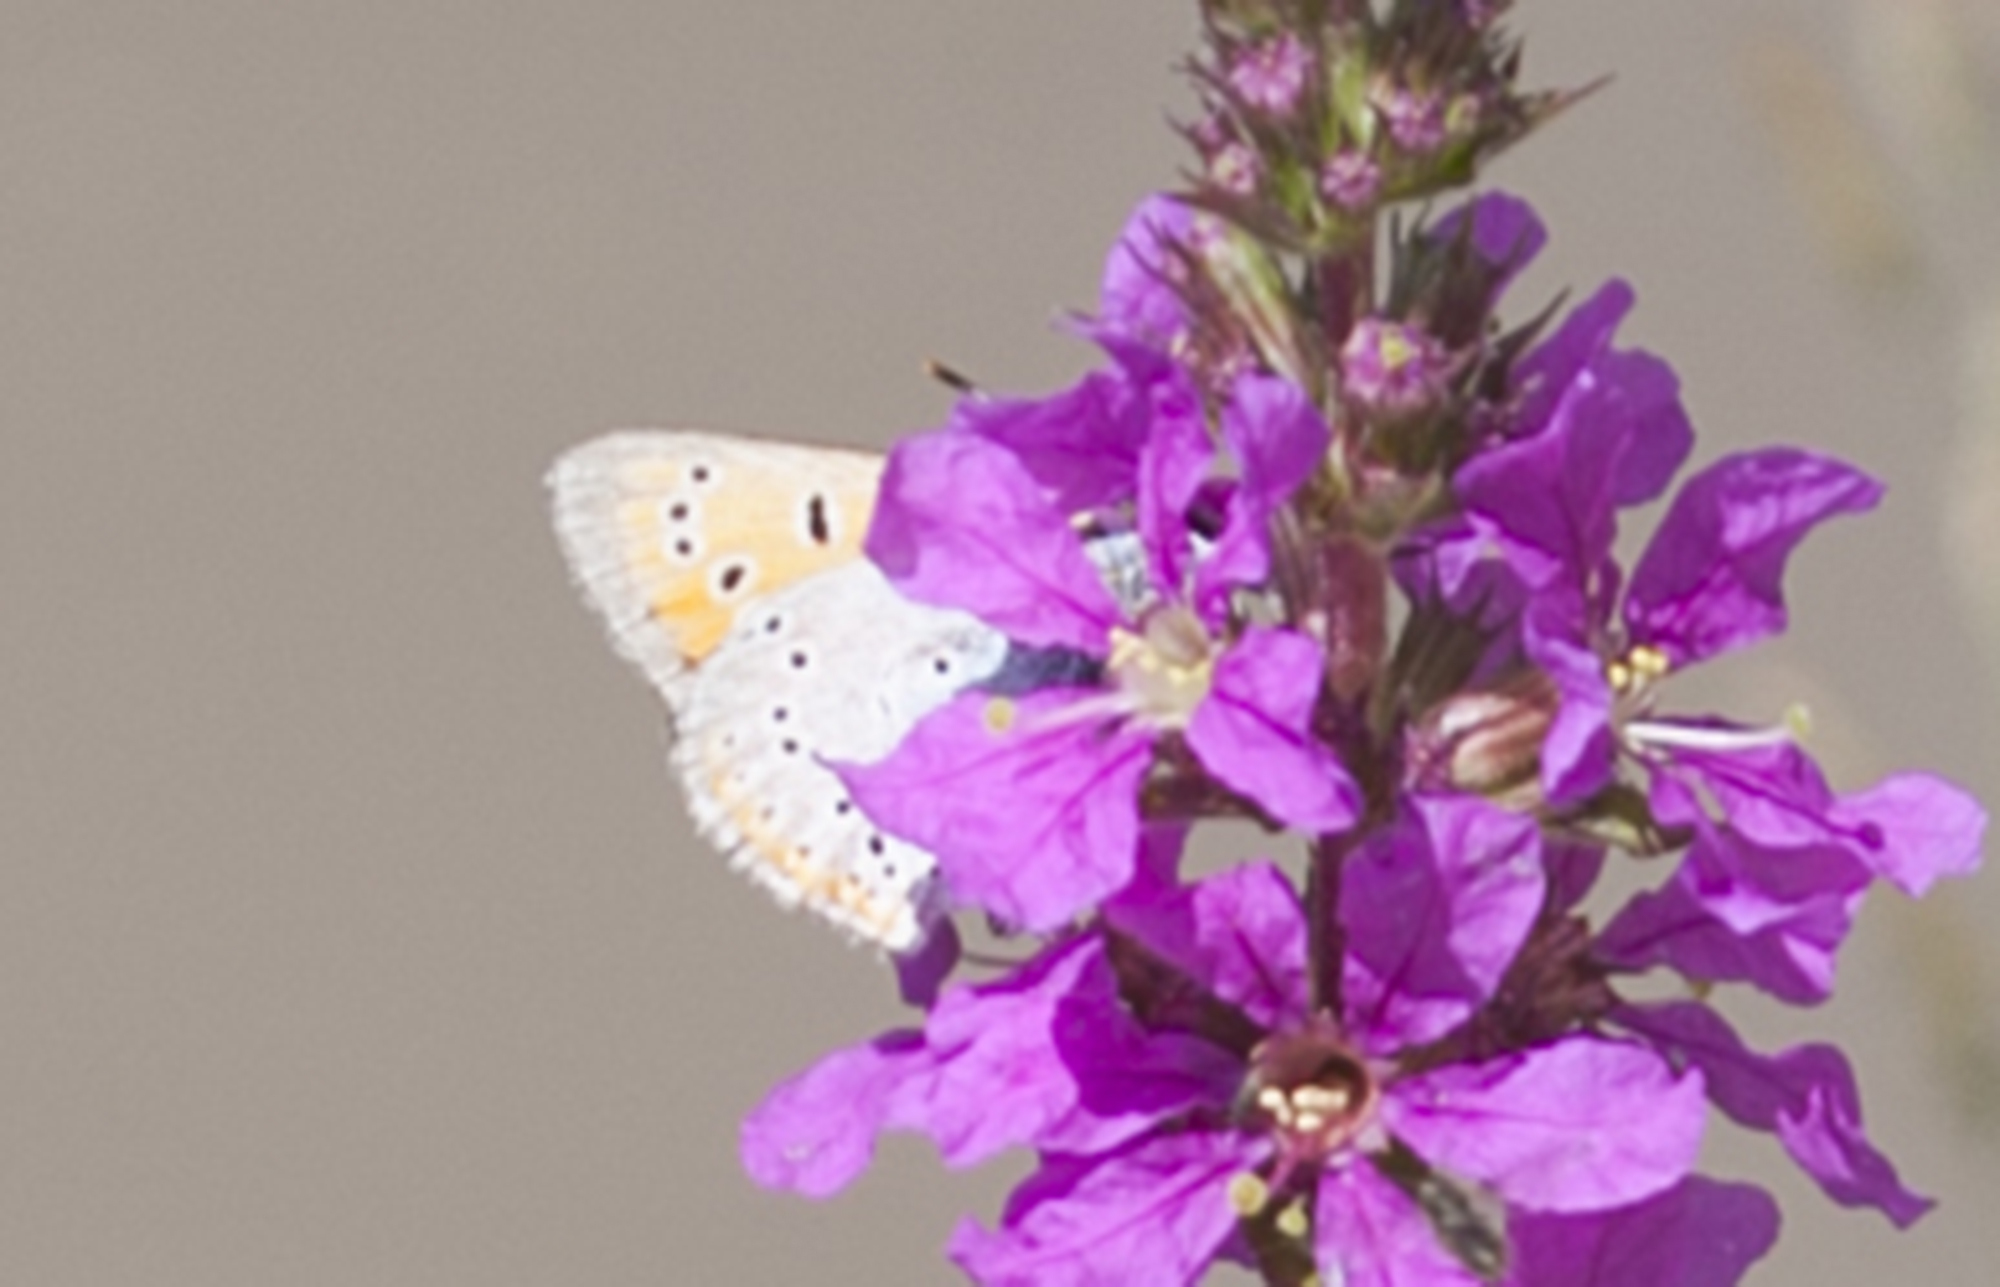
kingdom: Animalia
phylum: Arthropoda
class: Insecta
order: Lepidoptera
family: Lycaenidae
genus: Lycaena
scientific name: Lycaena dispar
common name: Large copper
